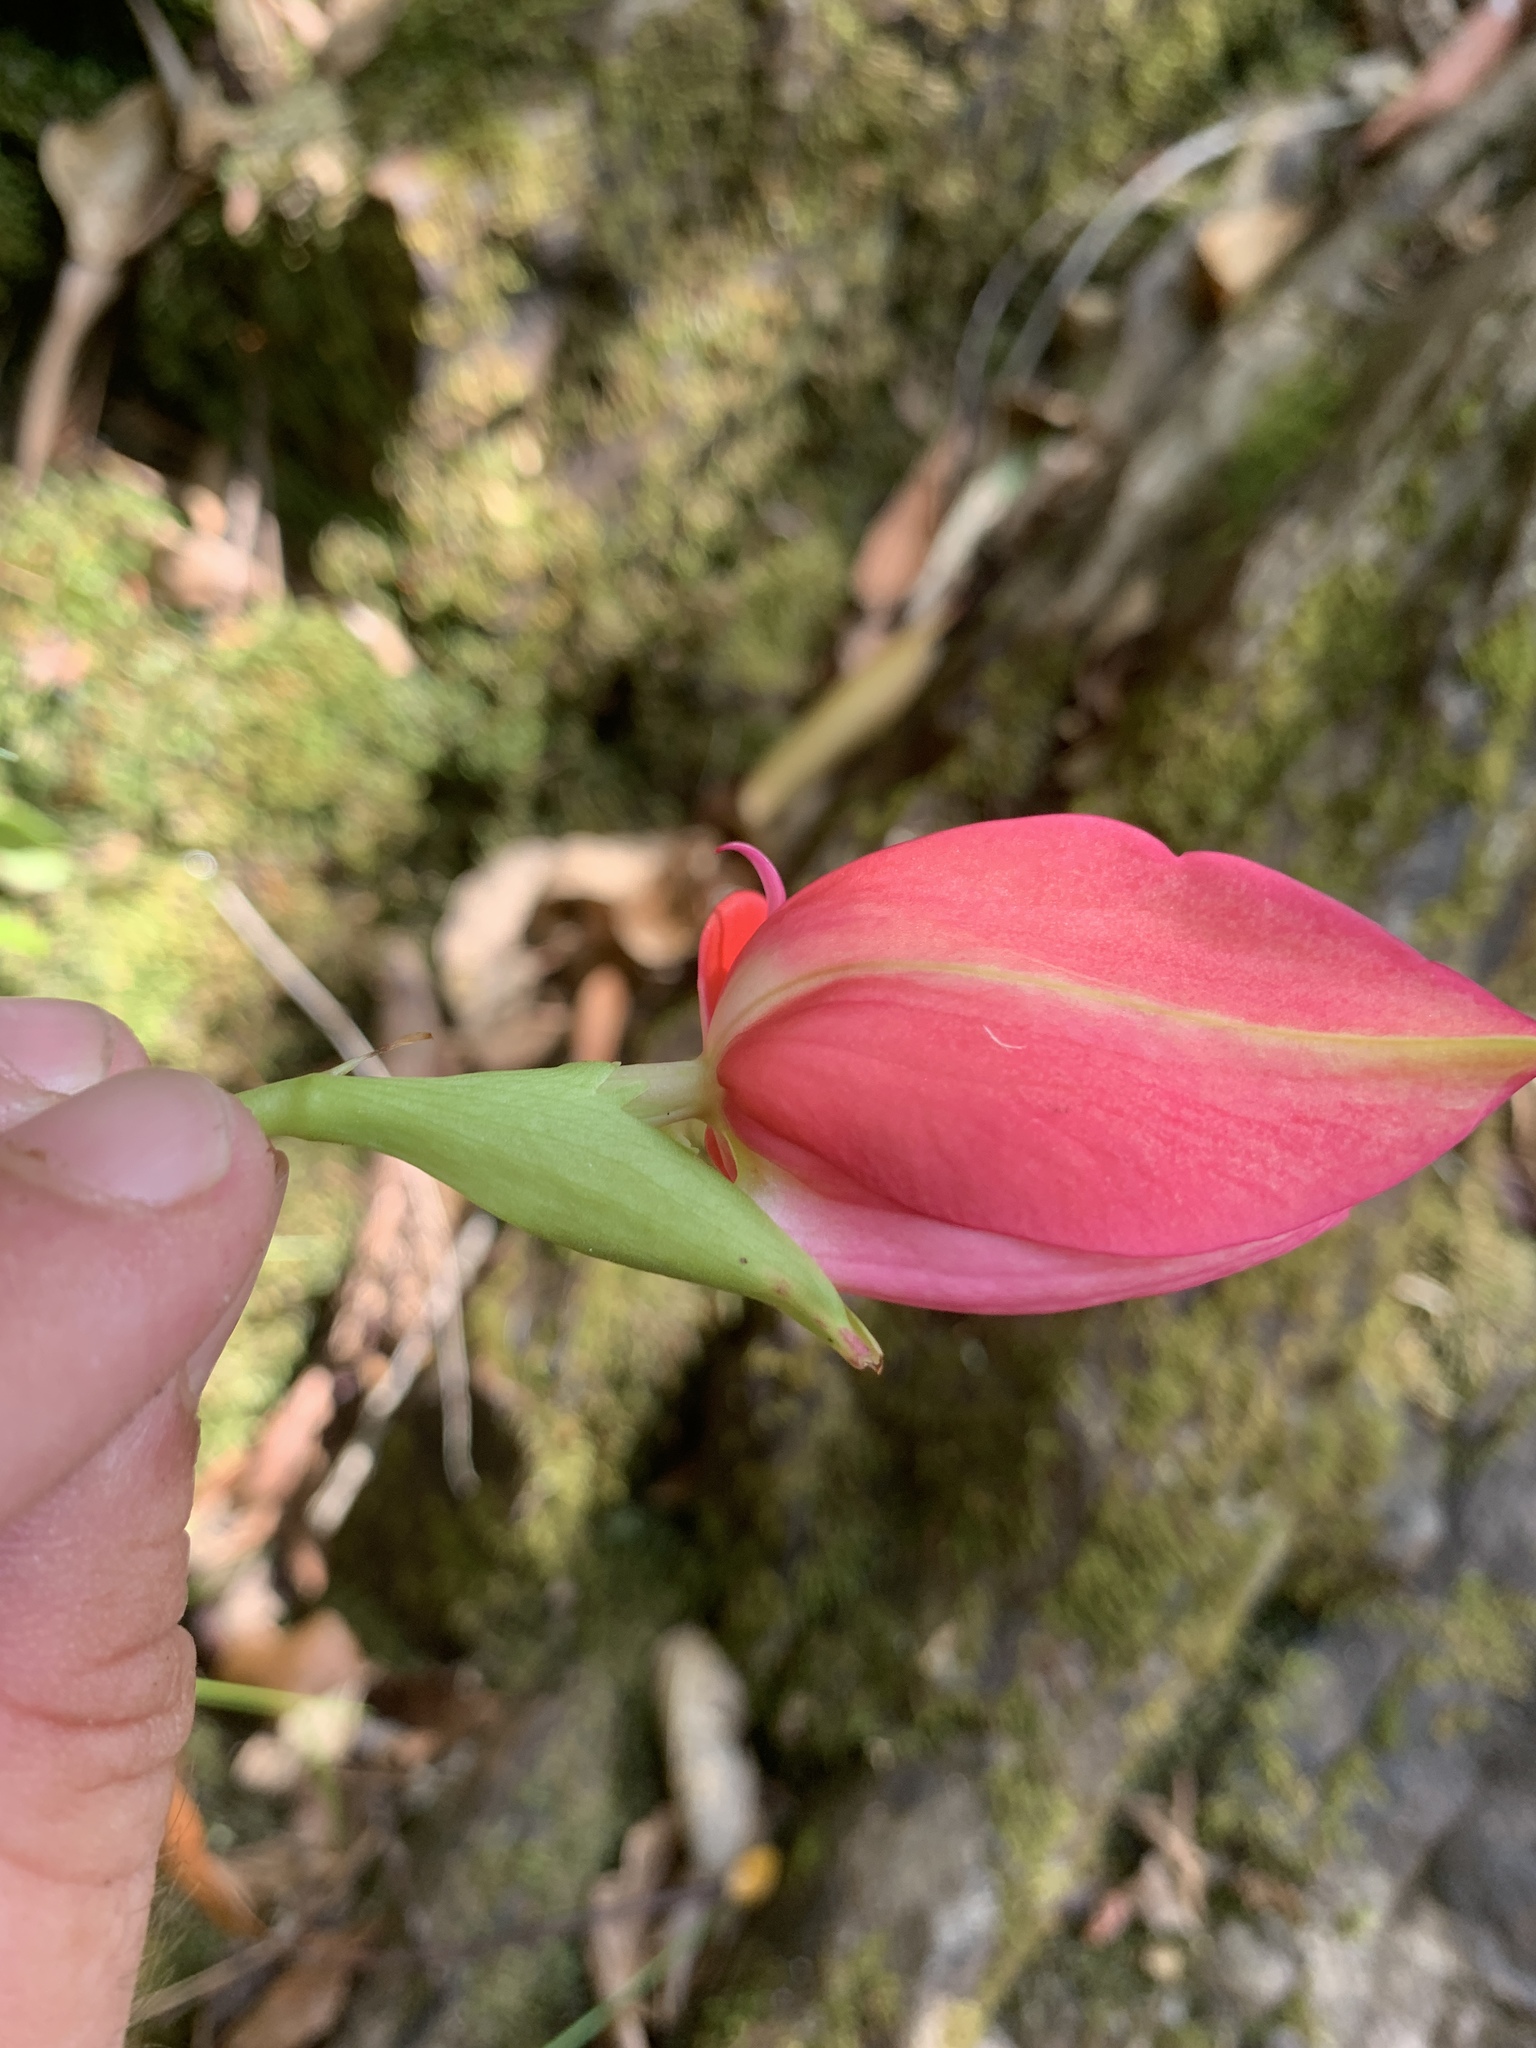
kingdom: Plantae
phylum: Tracheophyta
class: Liliopsida
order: Asparagales
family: Orchidaceae
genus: Disa
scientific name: Disa uniflora
